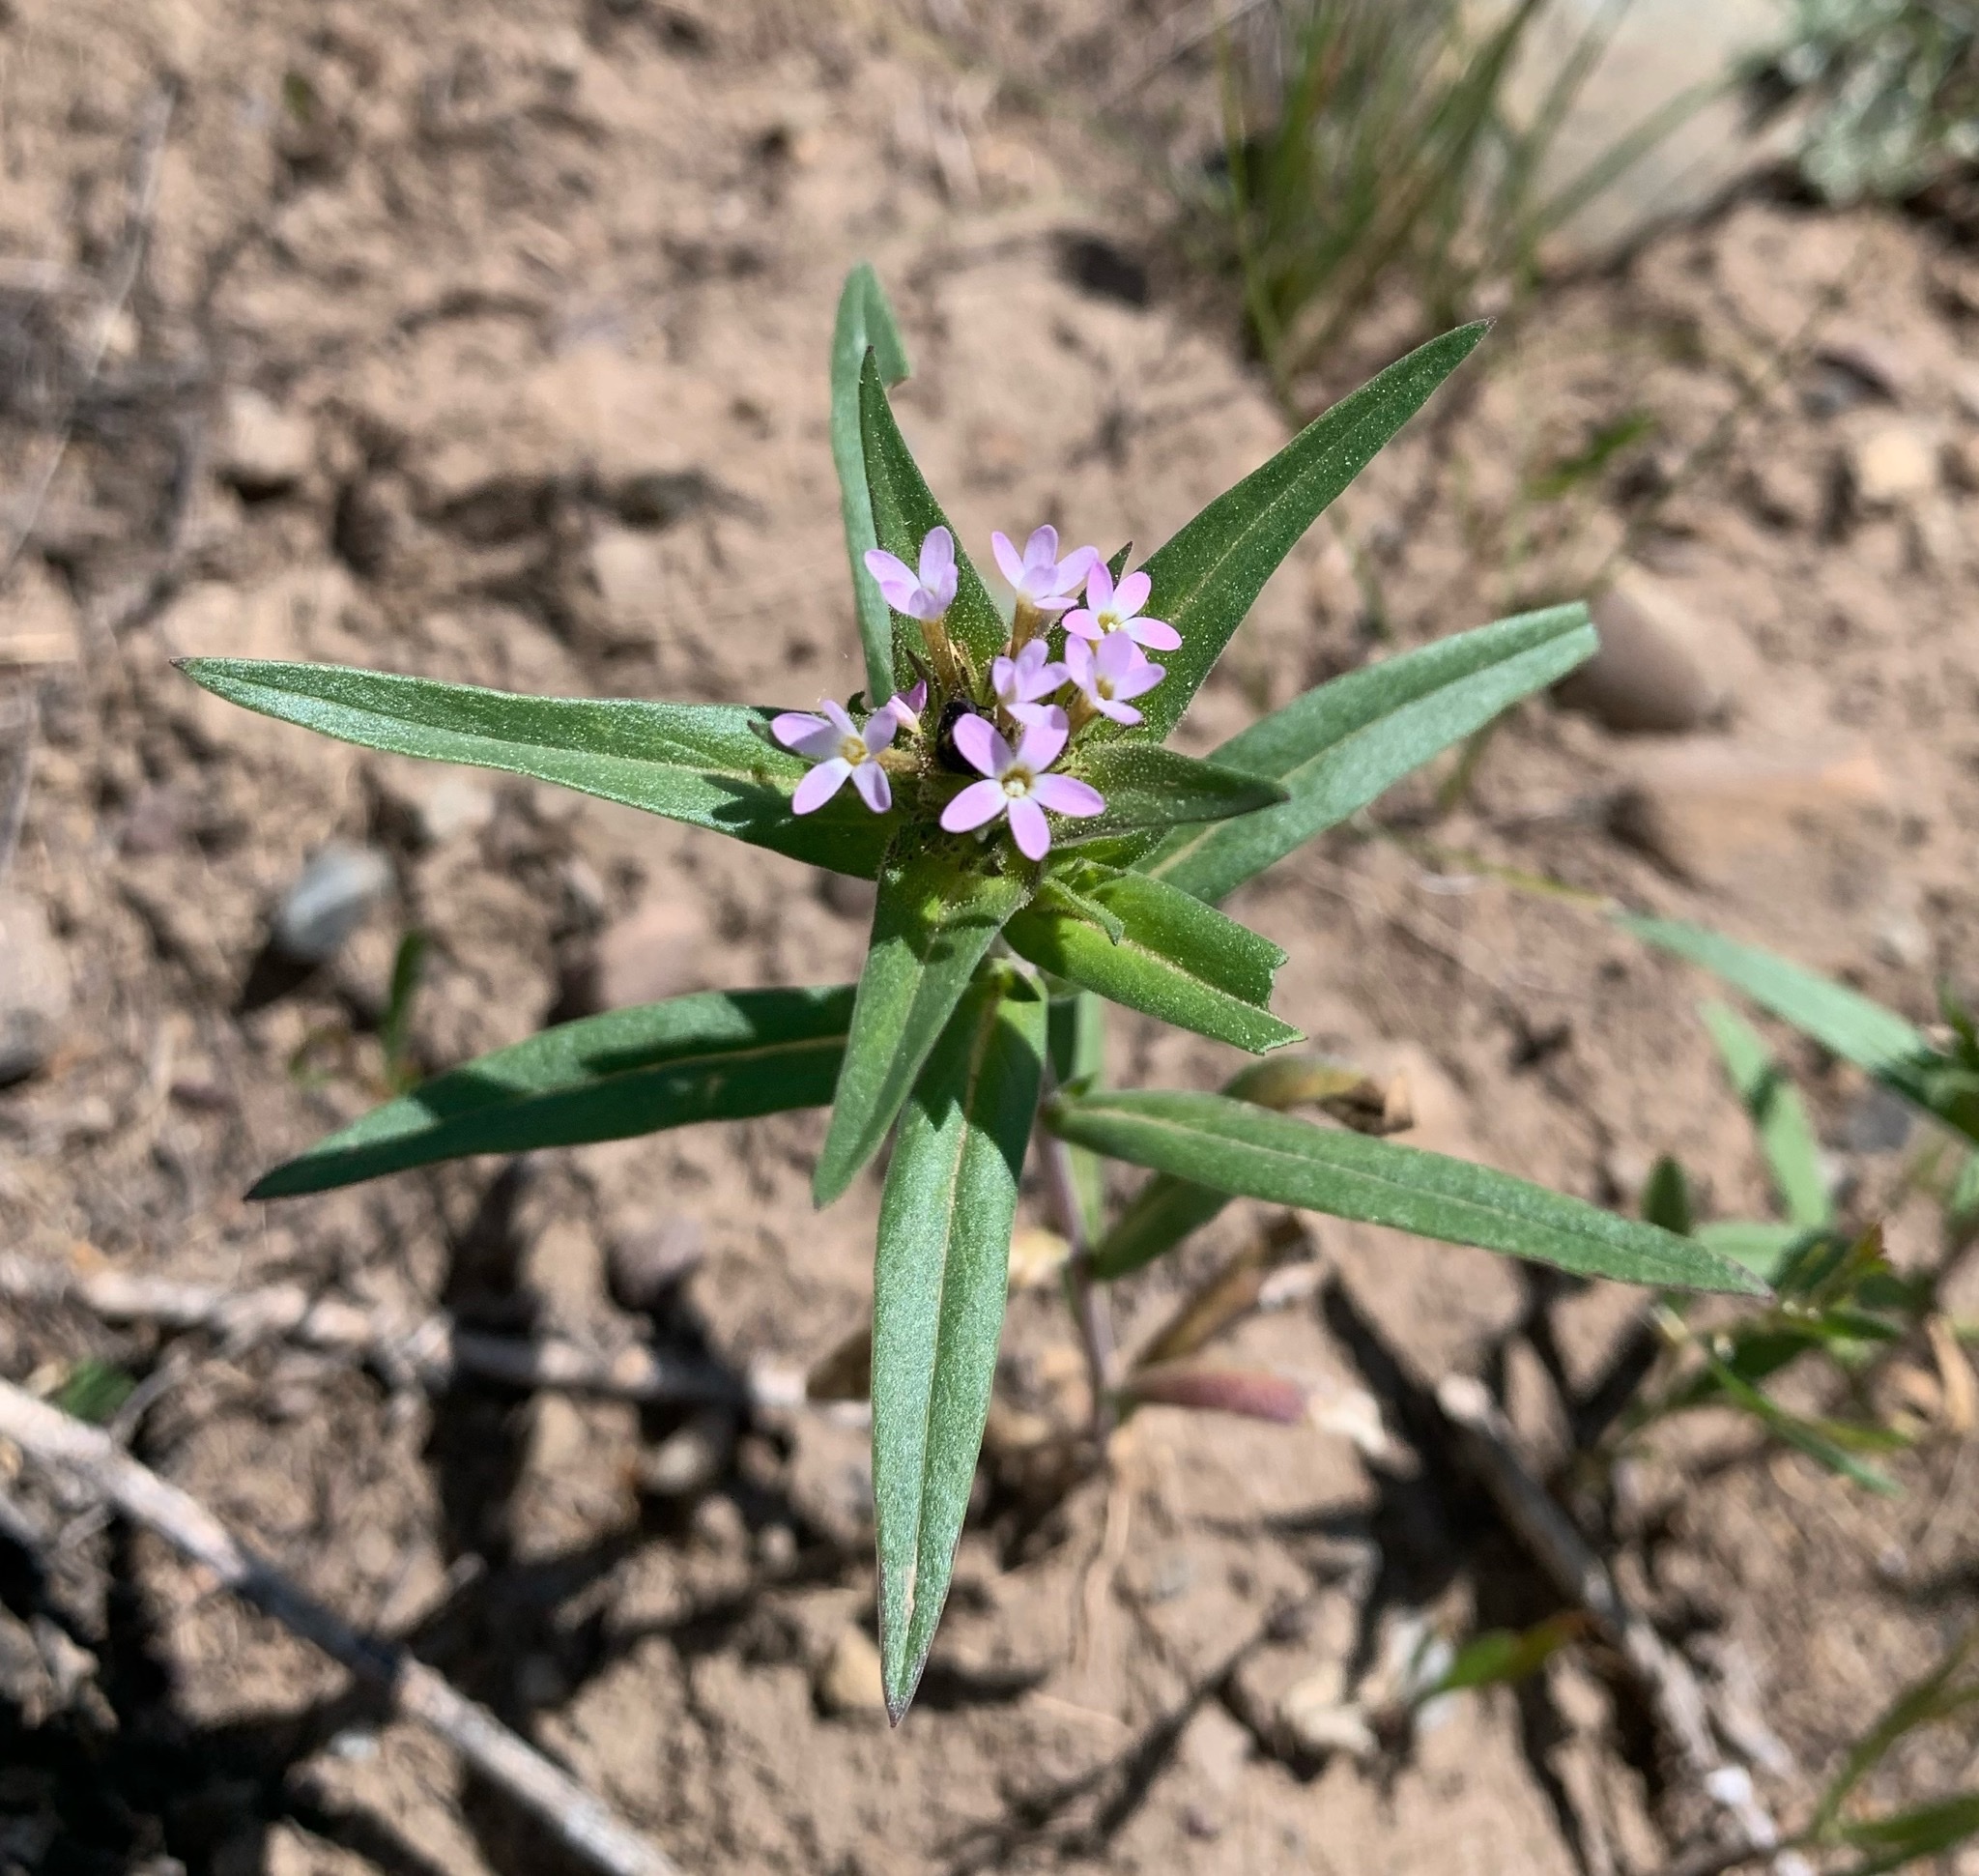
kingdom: Plantae
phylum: Tracheophyta
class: Magnoliopsida
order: Ericales
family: Polemoniaceae
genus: Collomia
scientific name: Collomia linearis
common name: Tiny trumpet
